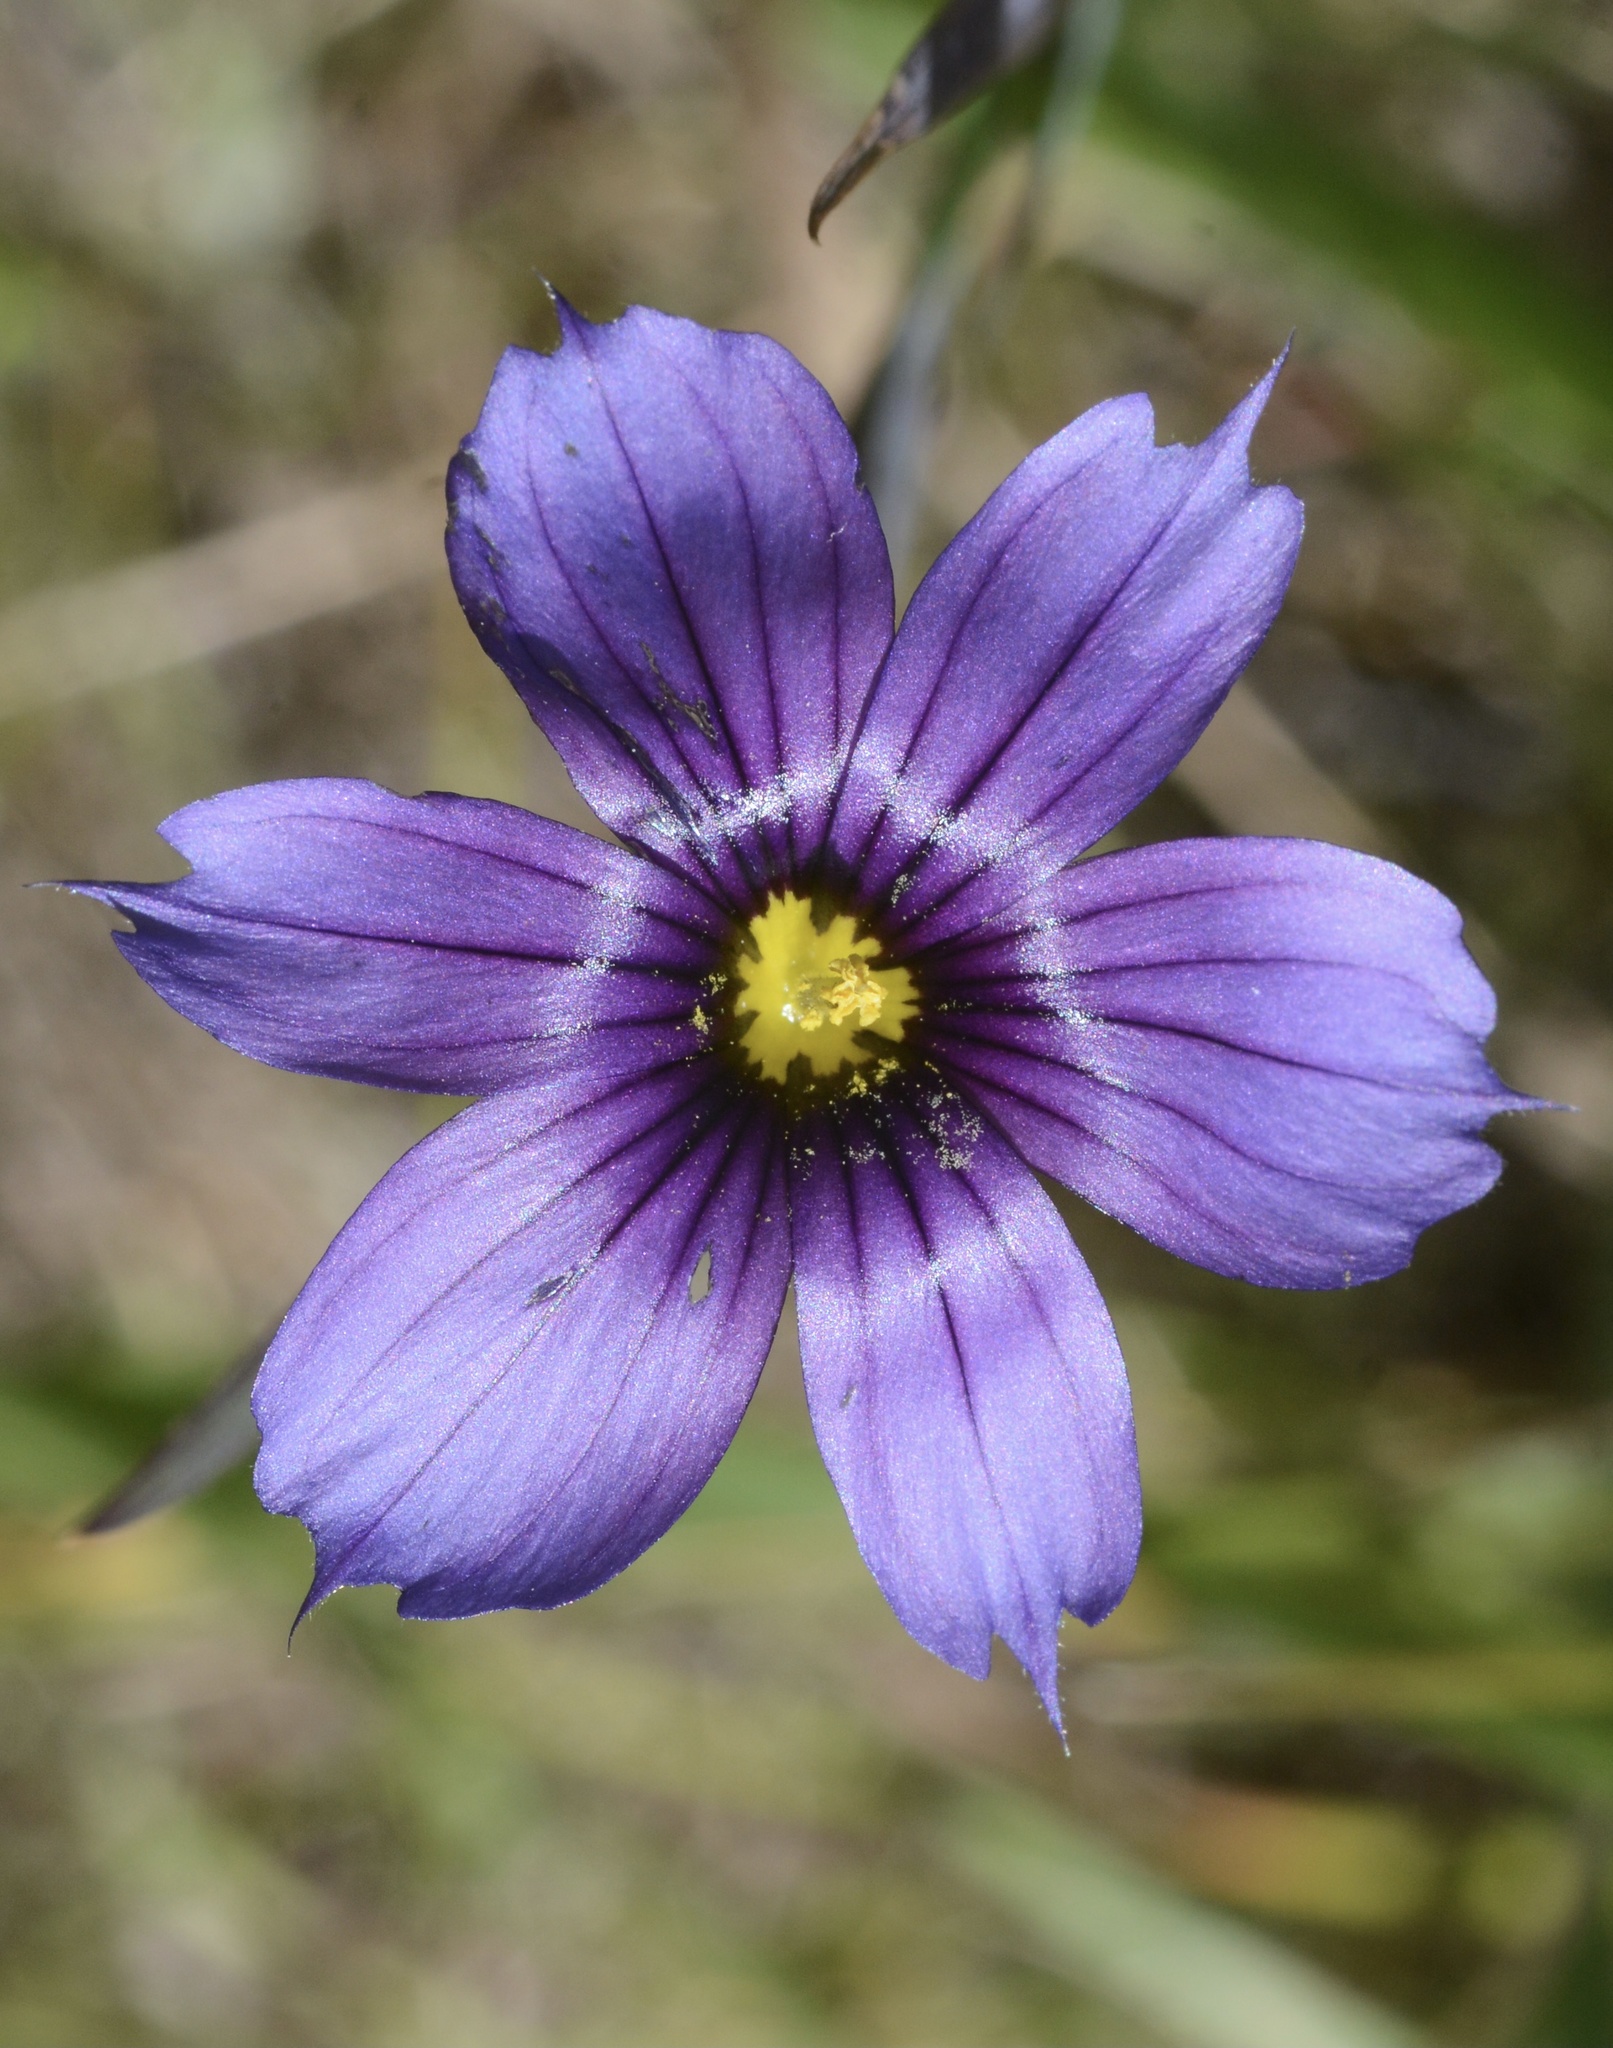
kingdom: Plantae
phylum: Tracheophyta
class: Liliopsida
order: Asparagales
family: Iridaceae
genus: Sisyrinchium
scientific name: Sisyrinchium bellum
